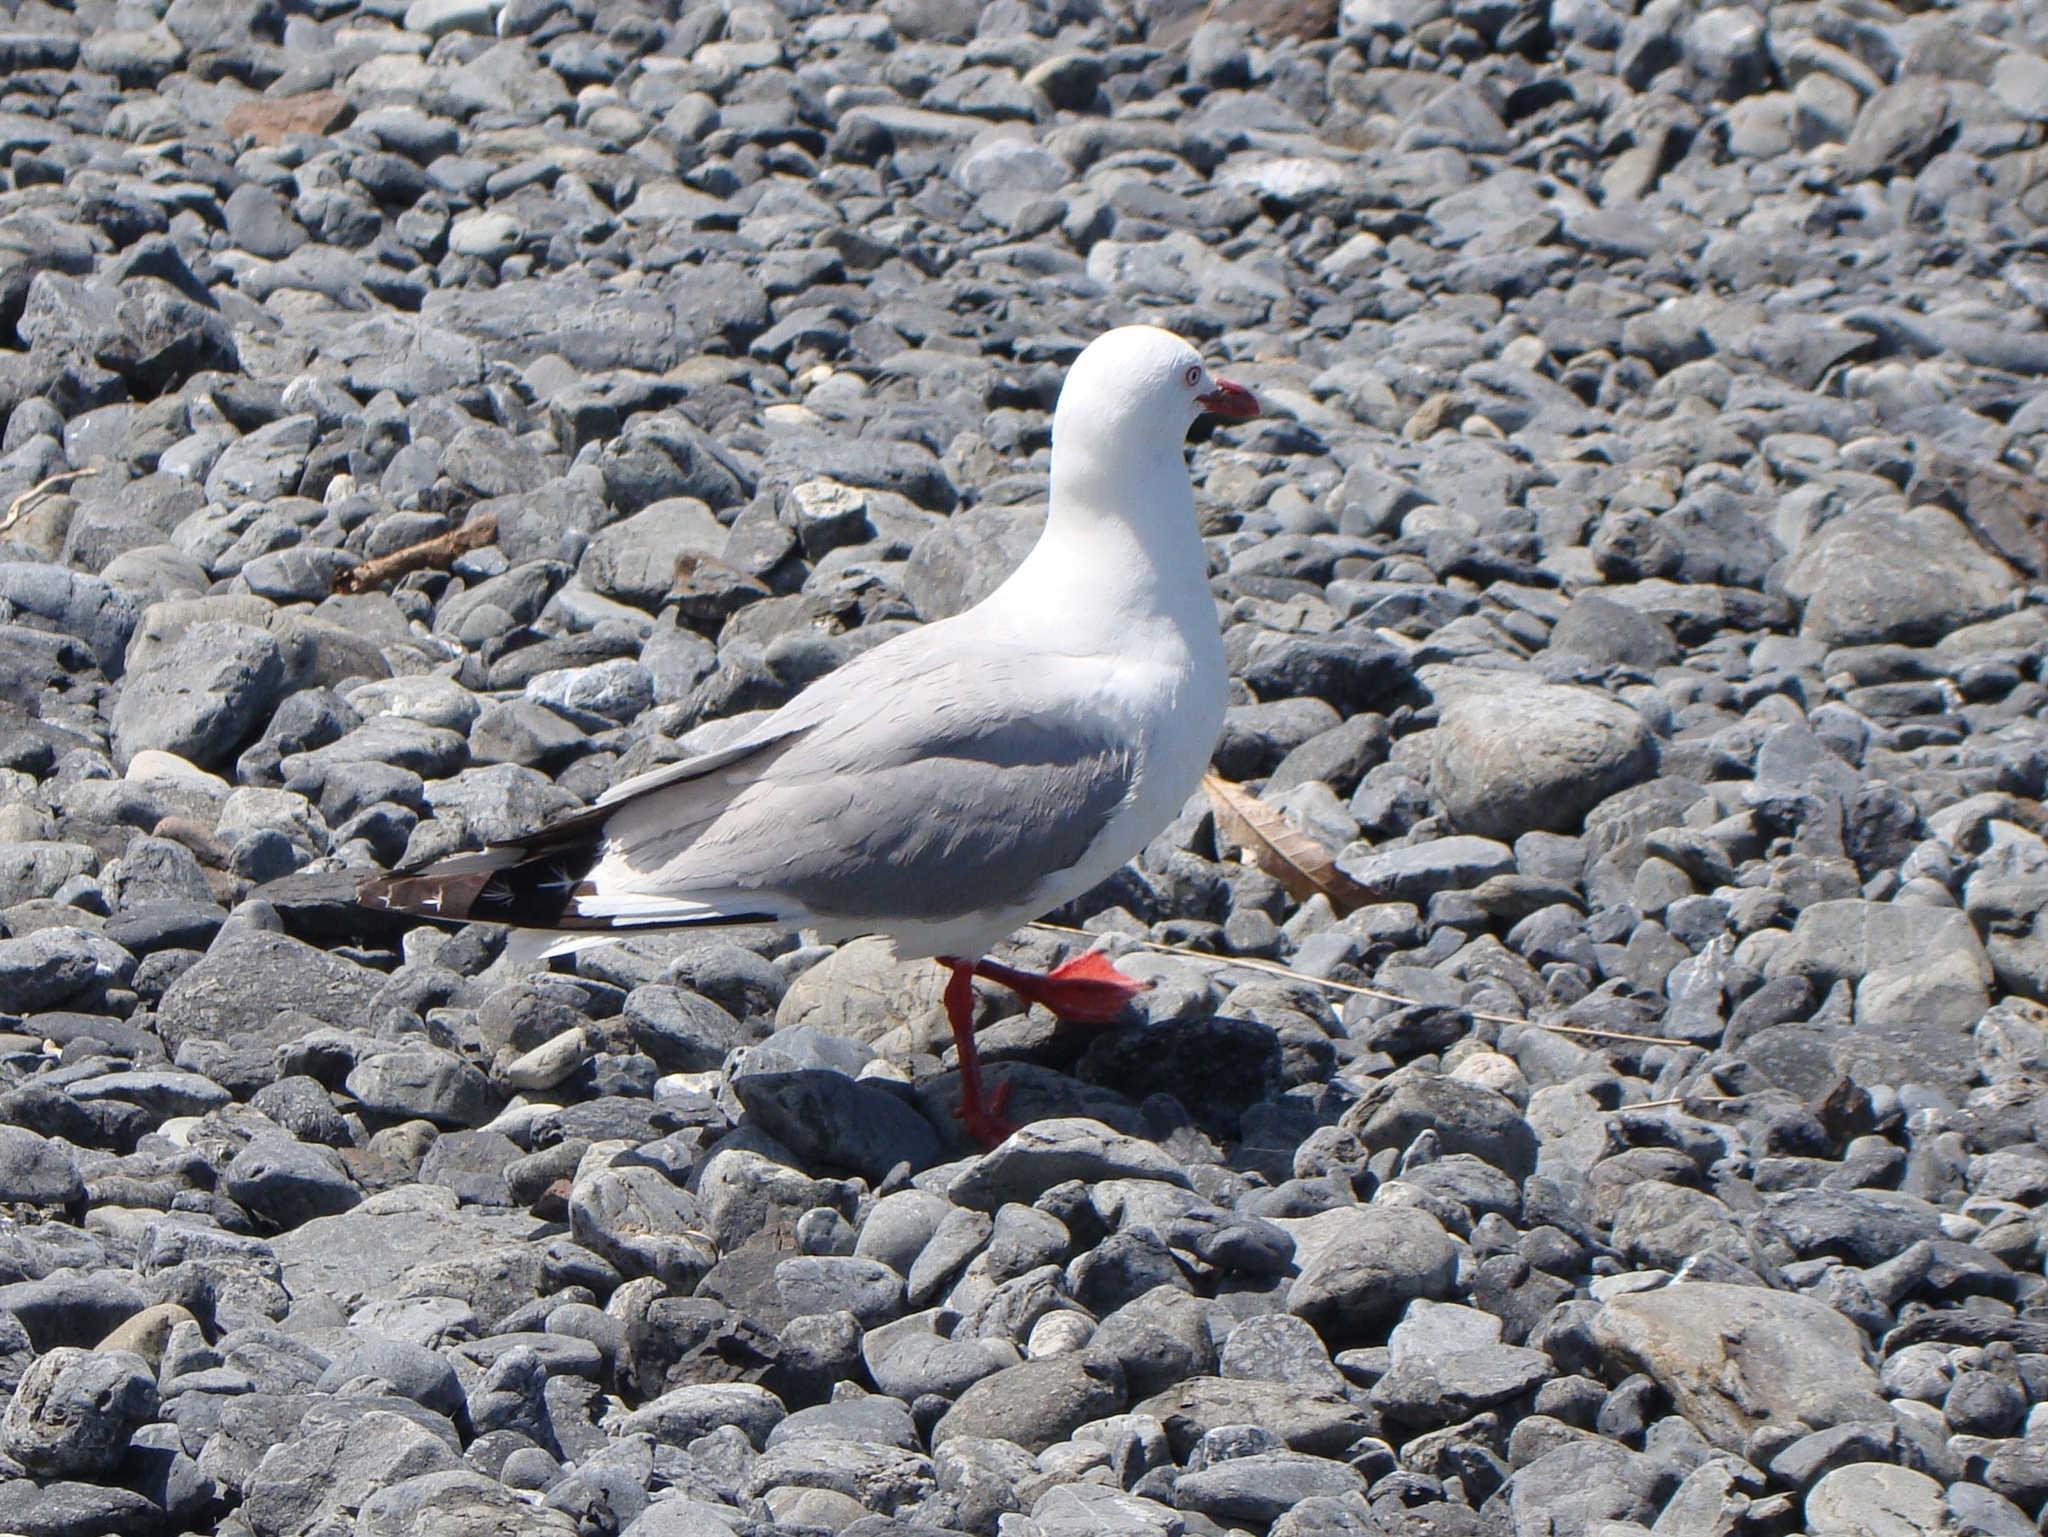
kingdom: Animalia
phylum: Chordata
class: Aves
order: Charadriiformes
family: Laridae
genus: Chroicocephalus
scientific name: Chroicocephalus novaehollandiae
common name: Silver gull
